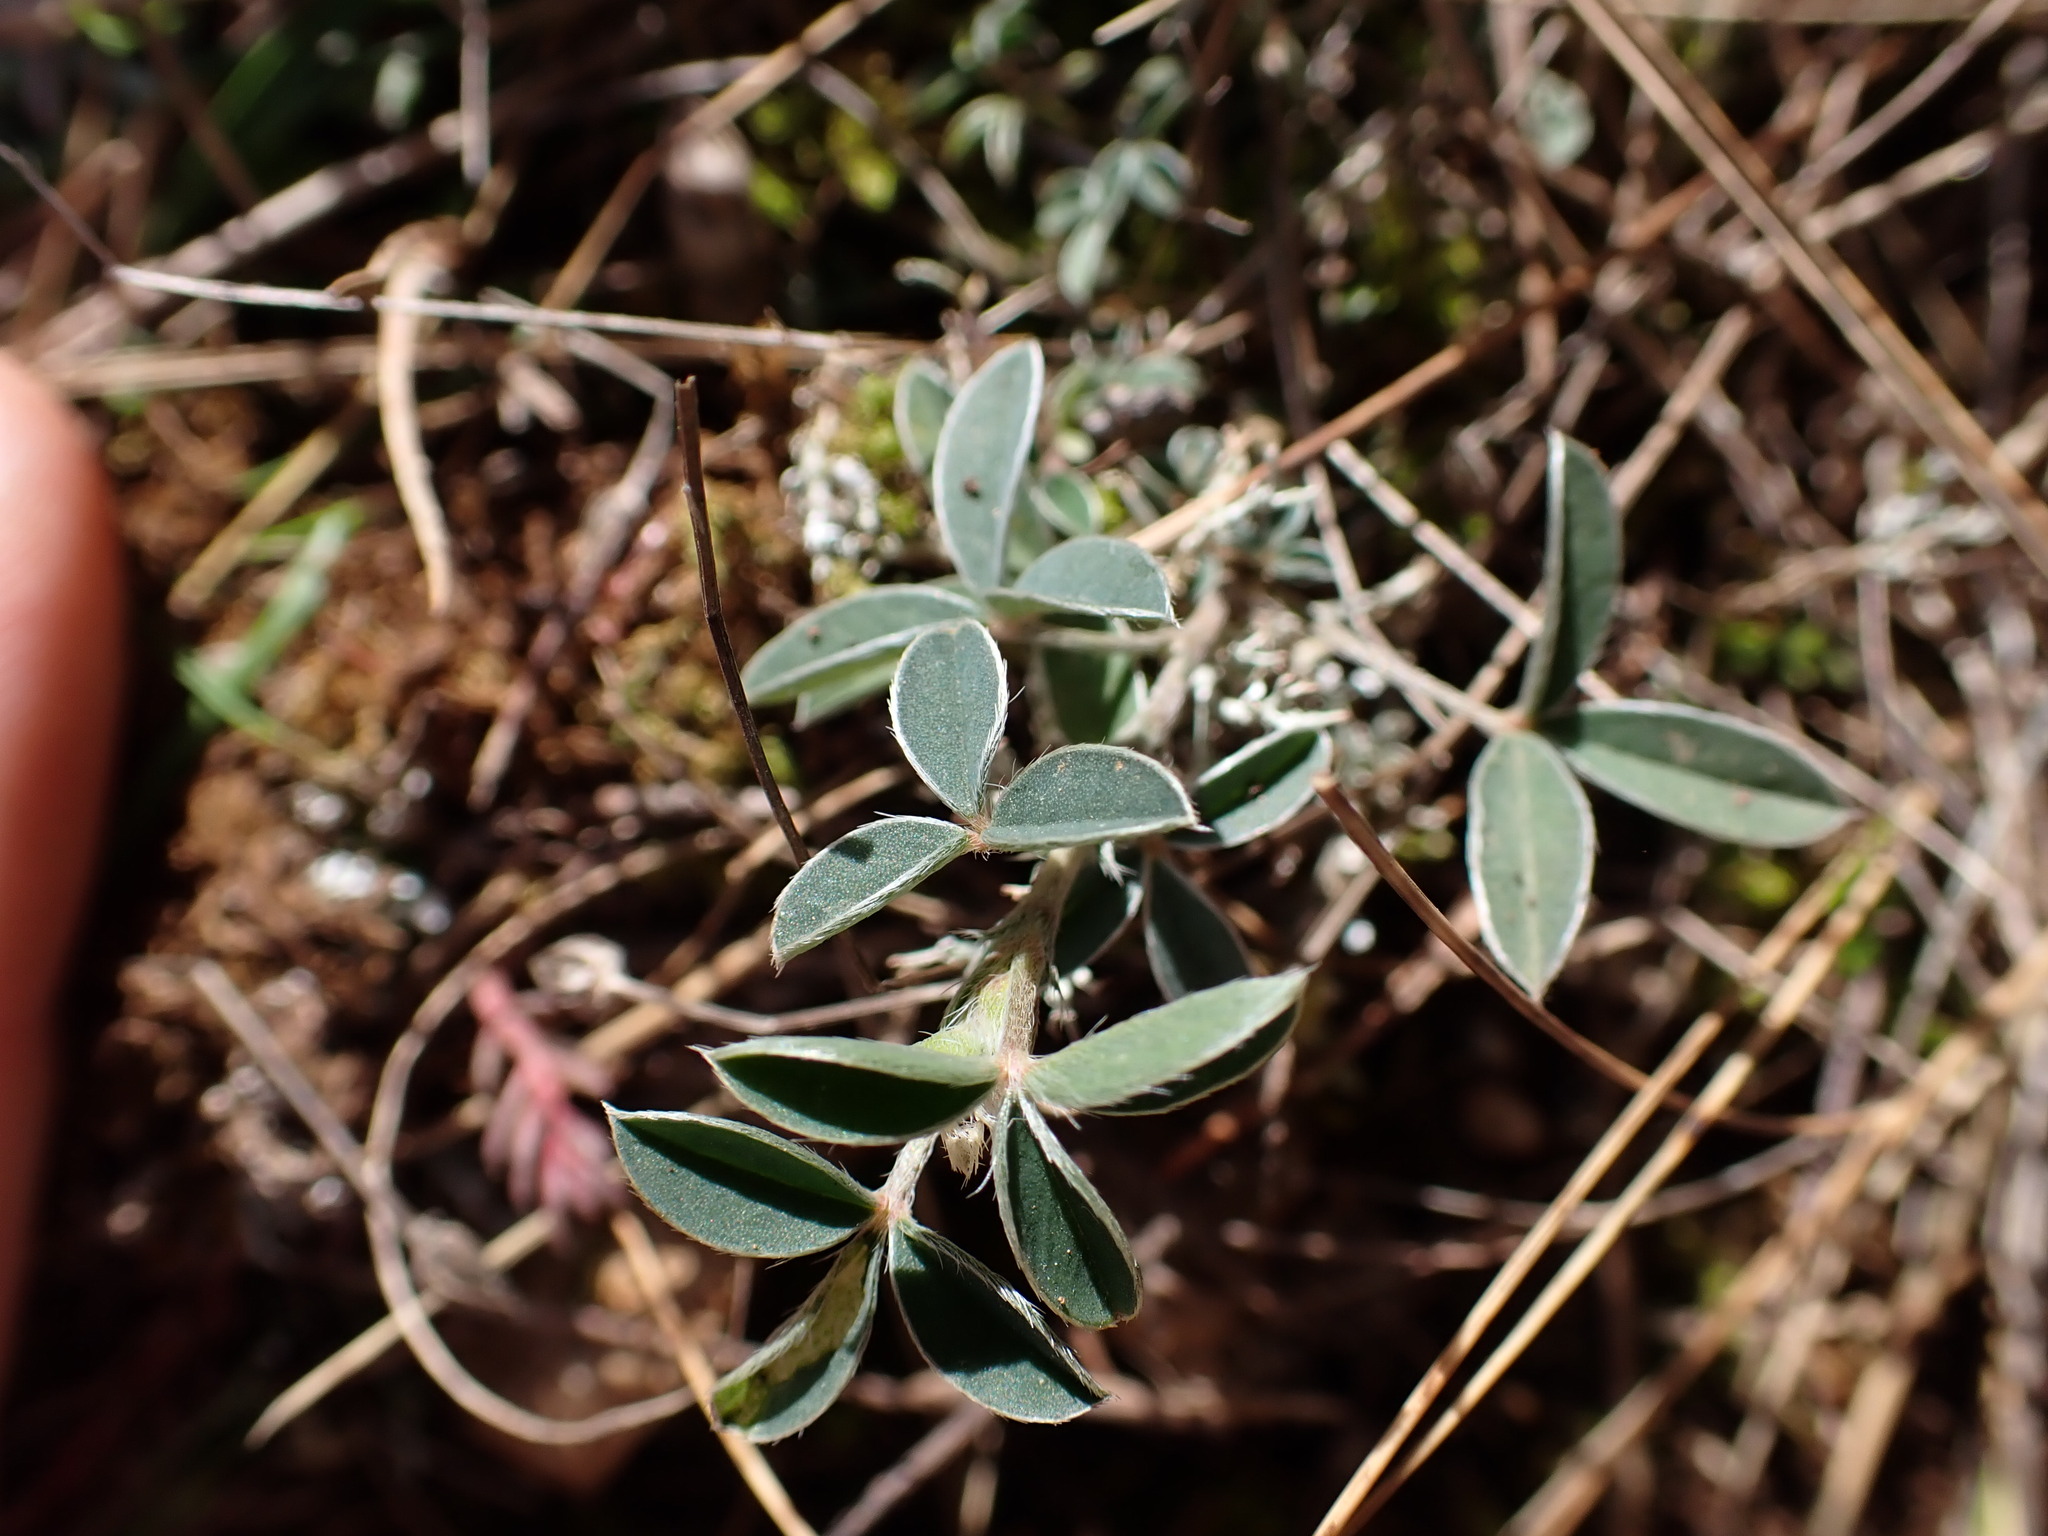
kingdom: Plantae
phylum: Tracheophyta
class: Magnoliopsida
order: Fabales
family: Fabaceae
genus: Argyrolobium
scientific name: Argyrolobium zanonii
